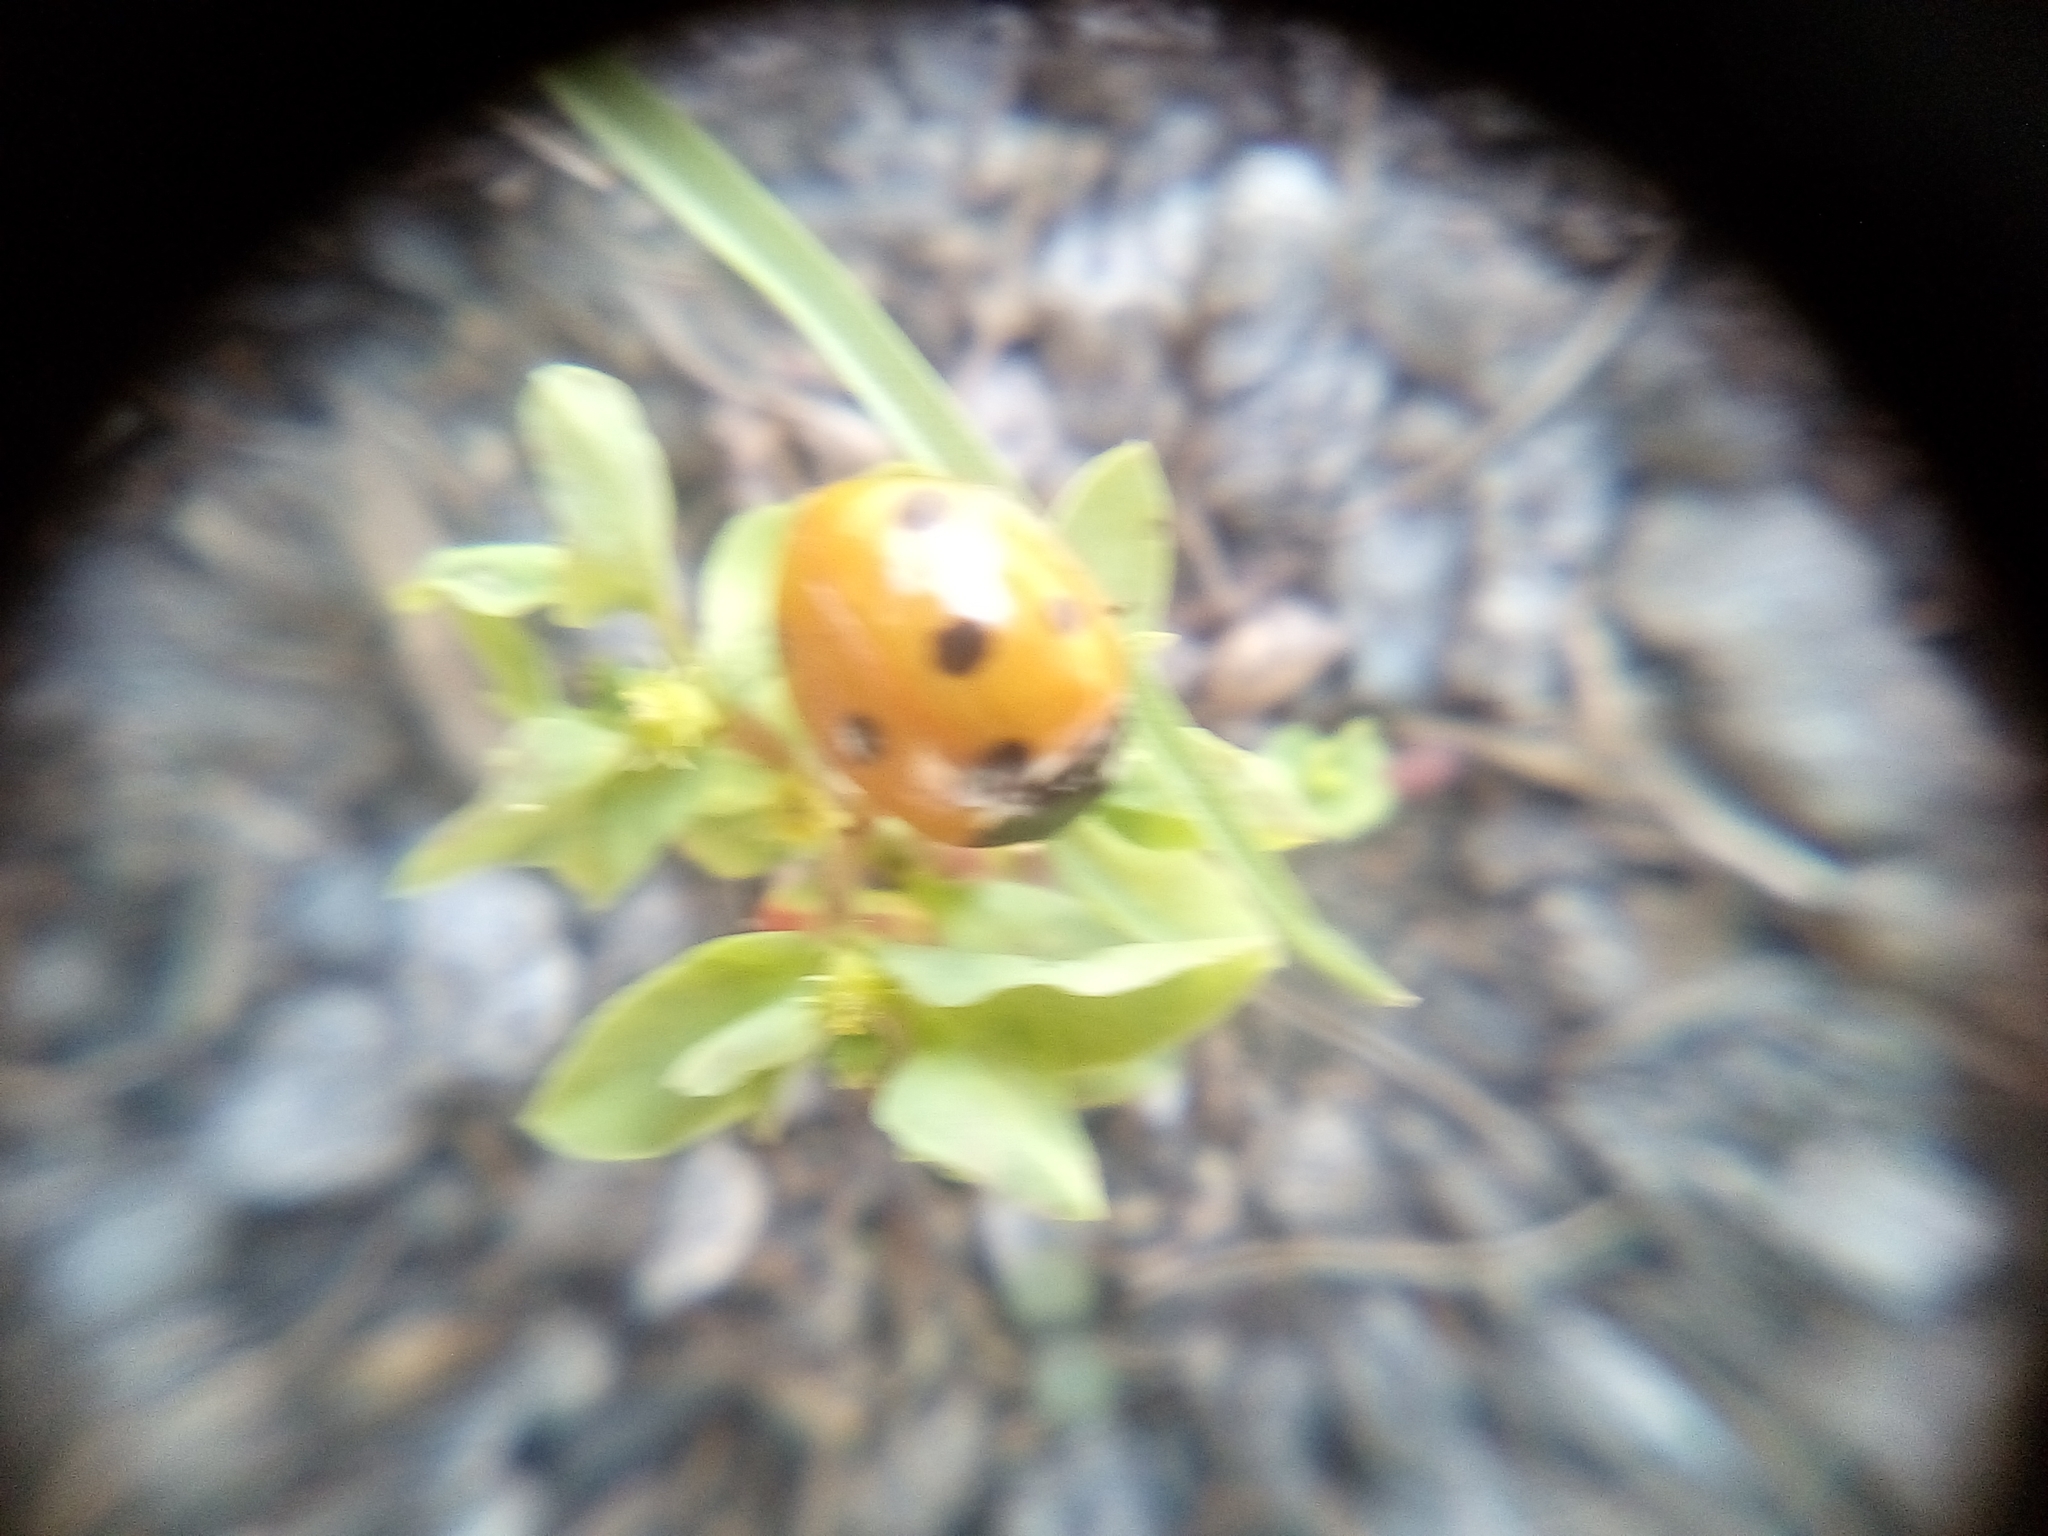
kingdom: Animalia
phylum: Arthropoda
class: Insecta
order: Coleoptera
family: Coccinellidae
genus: Coccinella
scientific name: Coccinella septempunctata
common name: Sevenspotted lady beetle
